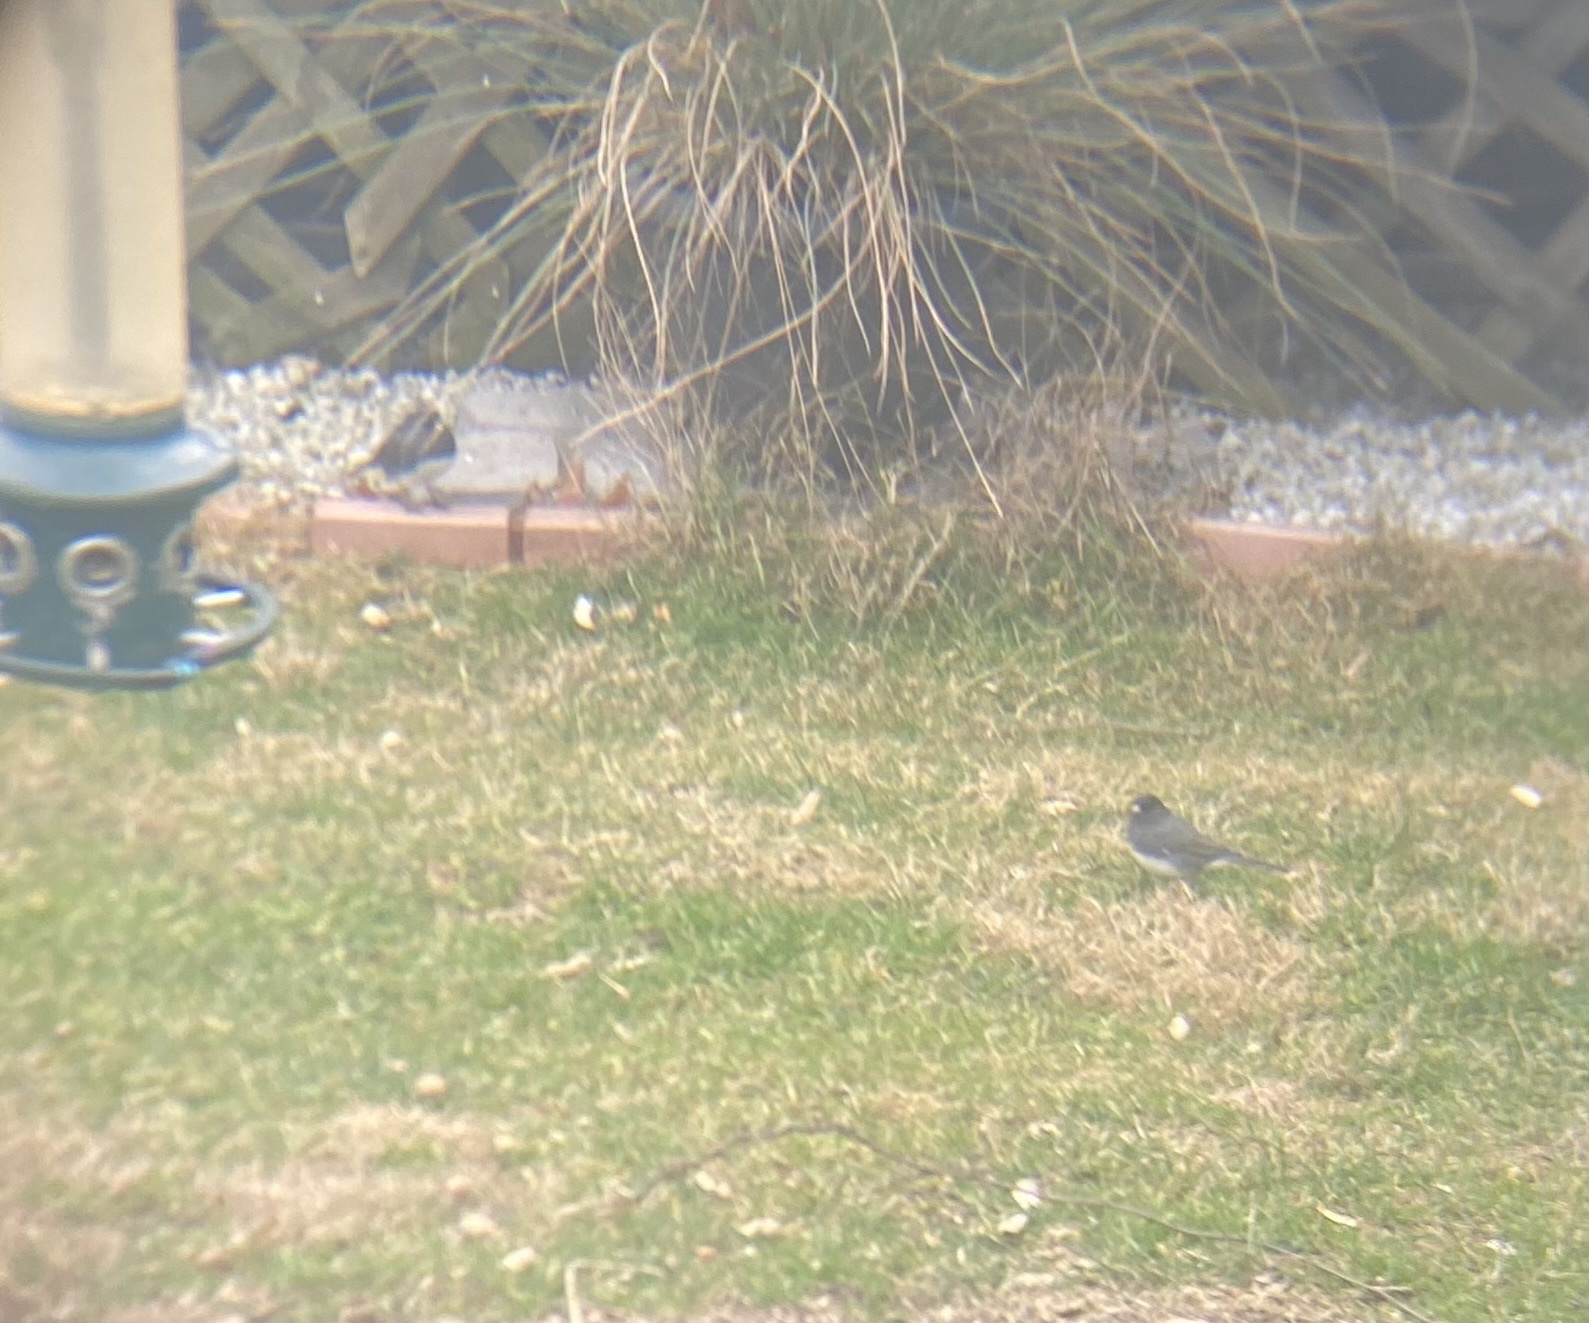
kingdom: Animalia
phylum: Chordata
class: Aves
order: Passeriformes
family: Passerellidae
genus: Junco
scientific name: Junco hyemalis
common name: Dark-eyed junco
